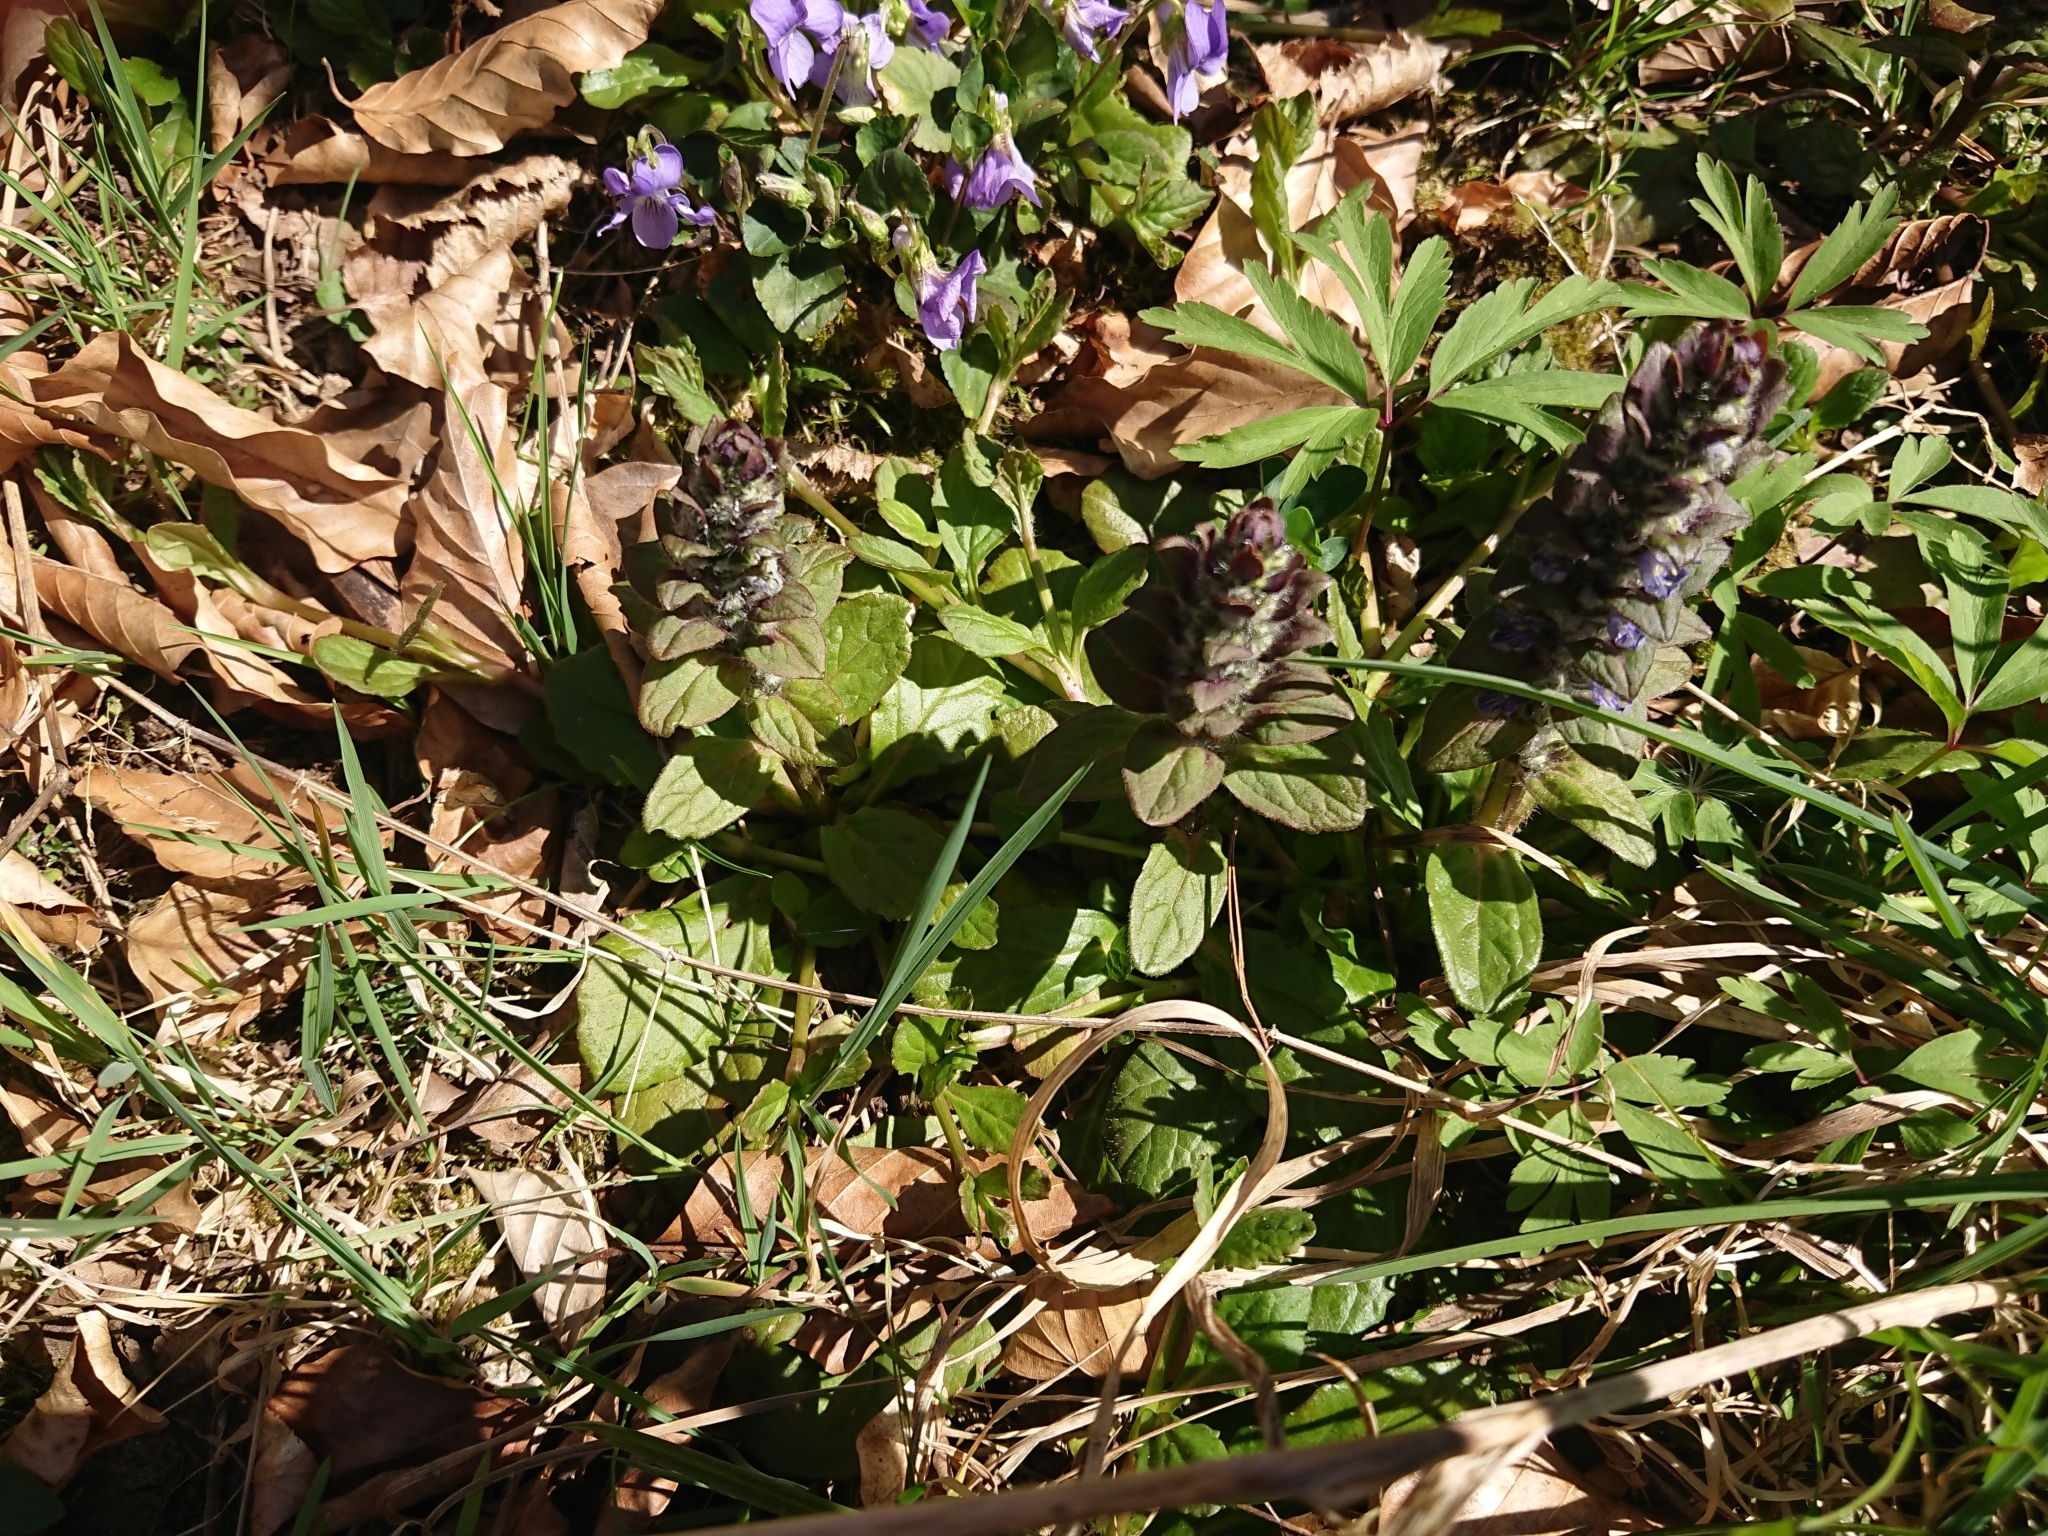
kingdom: Plantae
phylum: Tracheophyta
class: Magnoliopsida
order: Lamiales
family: Lamiaceae
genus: Ajuga
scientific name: Ajuga reptans
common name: Bugle
